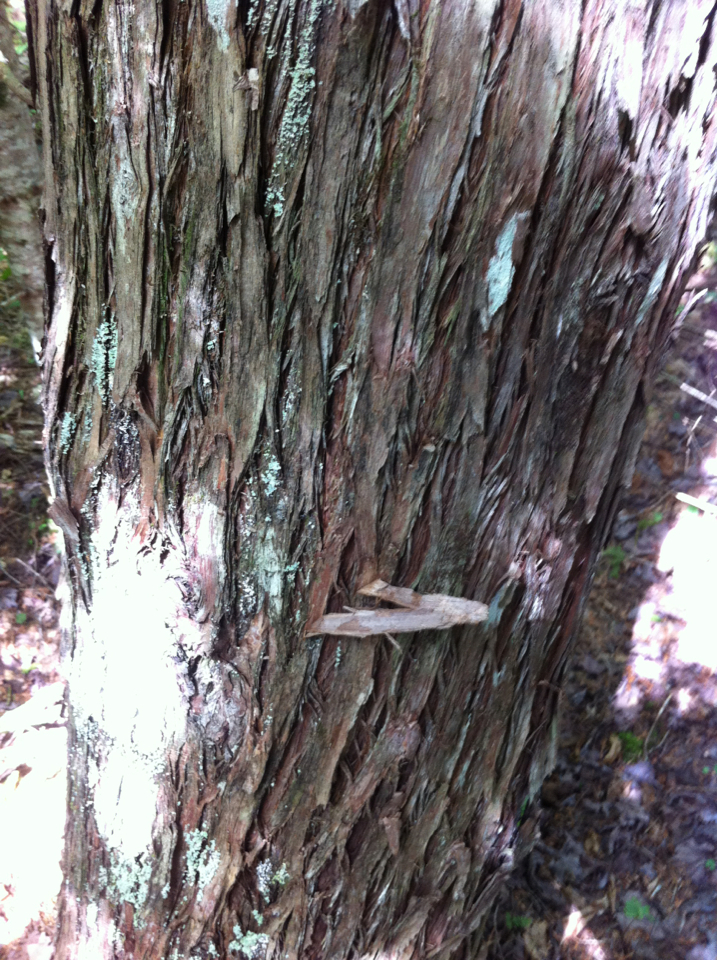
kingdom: Plantae
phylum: Tracheophyta
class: Pinopsida
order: Pinales
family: Cupressaceae
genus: Thuja
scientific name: Thuja occidentalis
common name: Northern white-cedar
